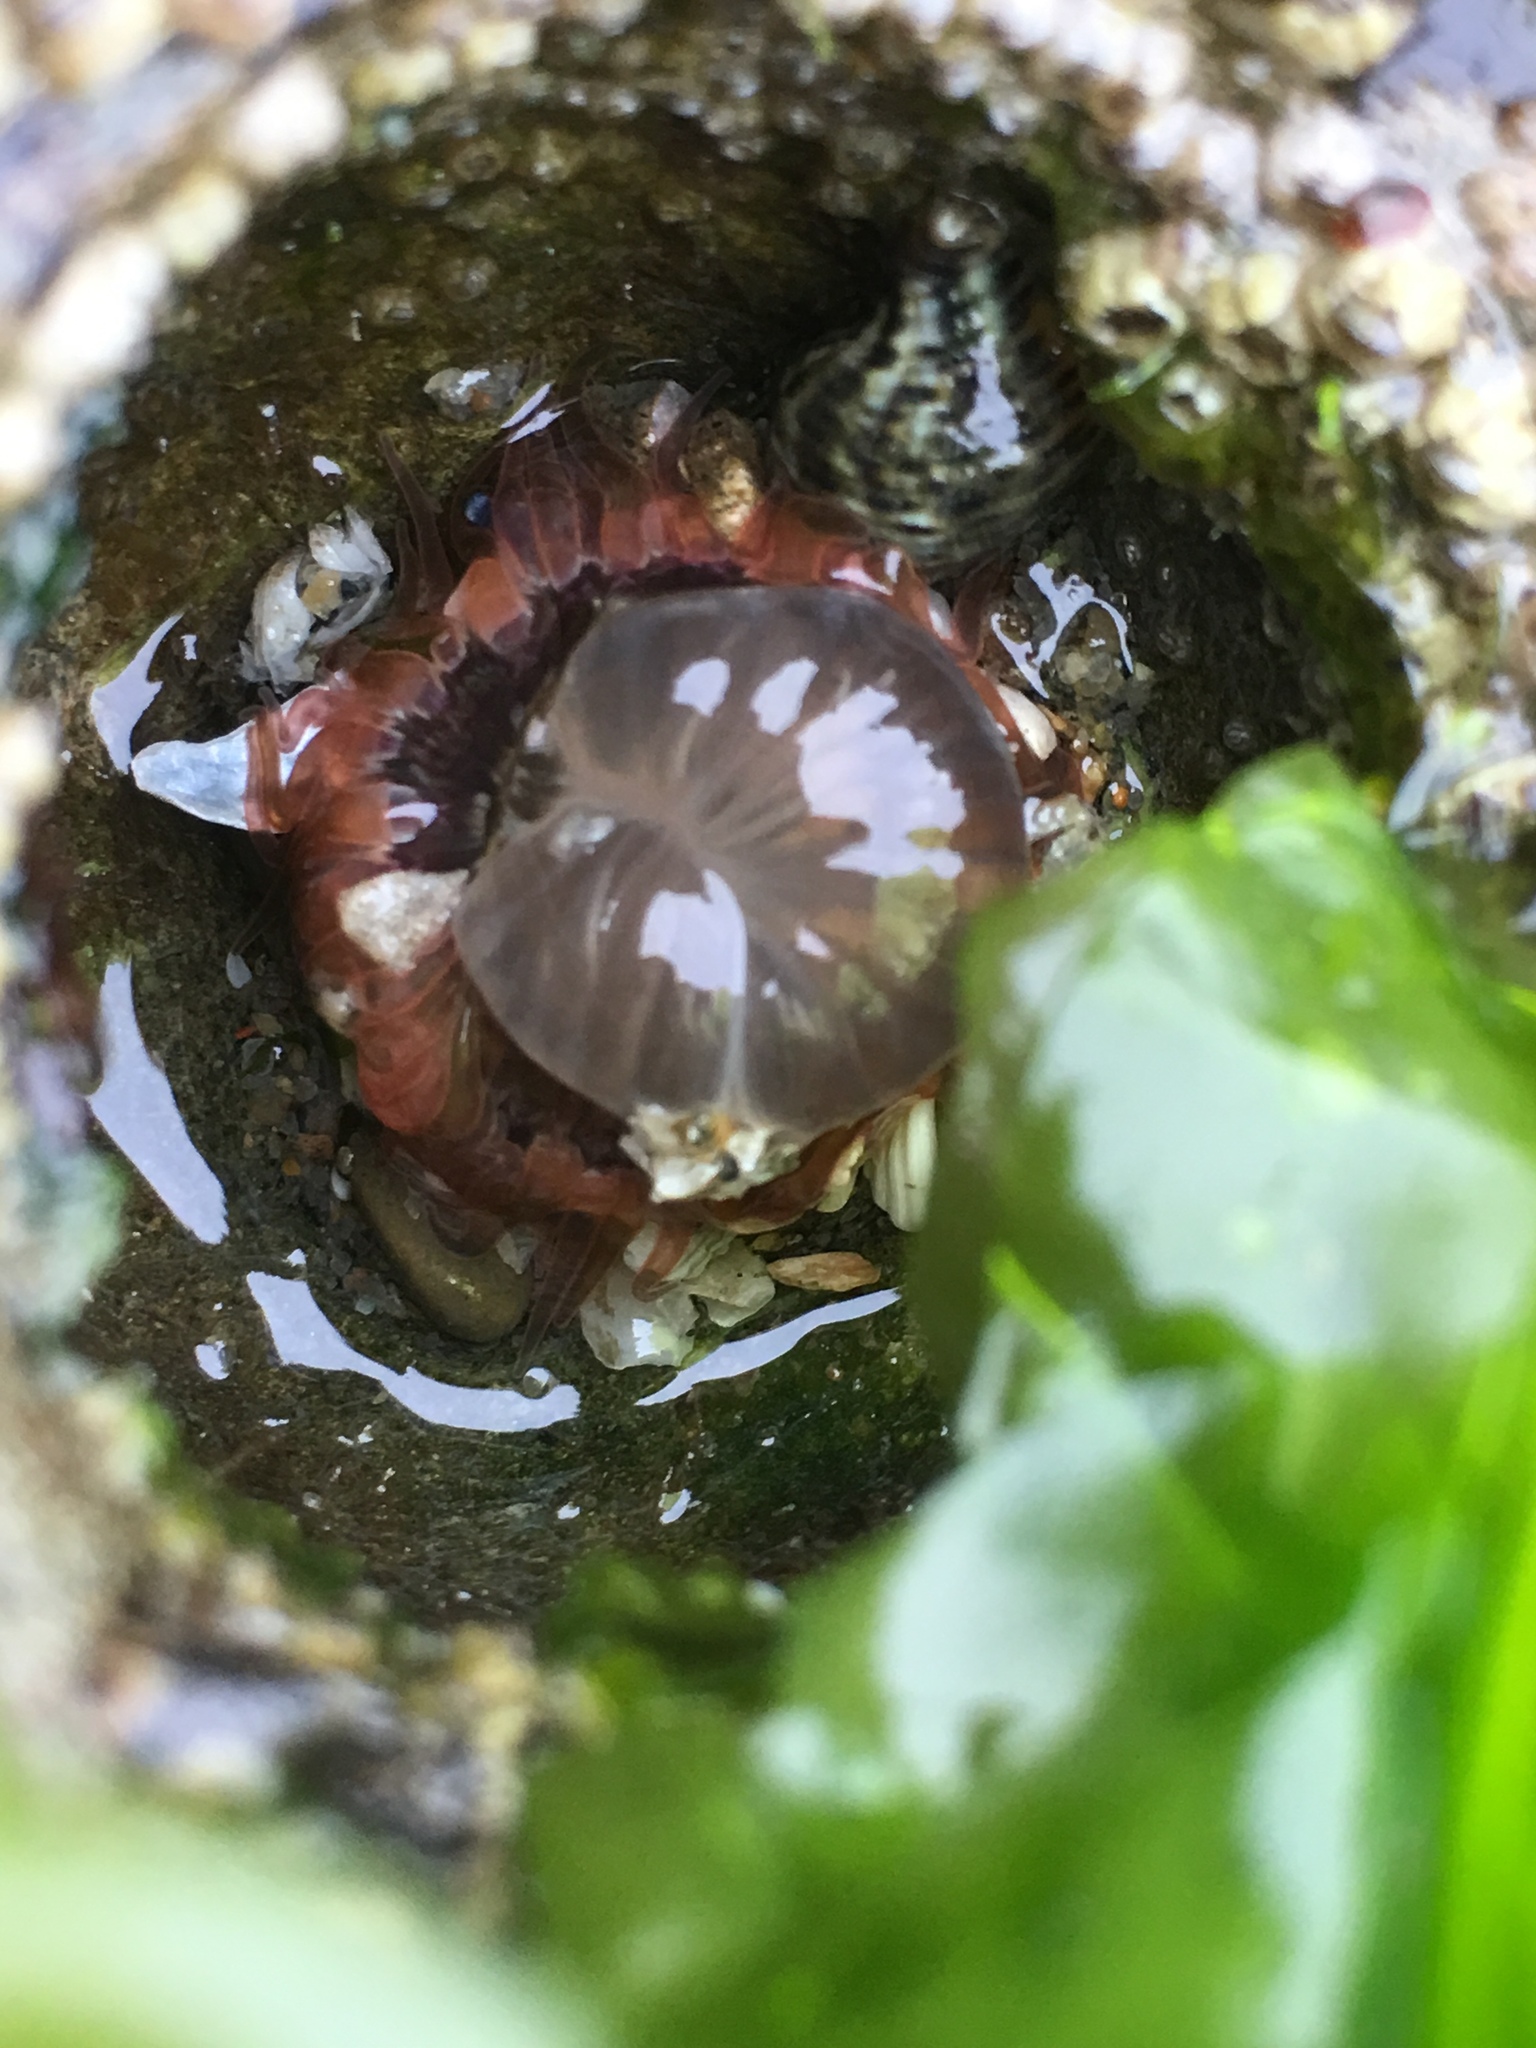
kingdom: Animalia
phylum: Cnidaria
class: Anthozoa
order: Actiniaria
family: Actiniidae
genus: Anthopleura
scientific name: Anthopleura artemisia
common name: Buried sea anemone
